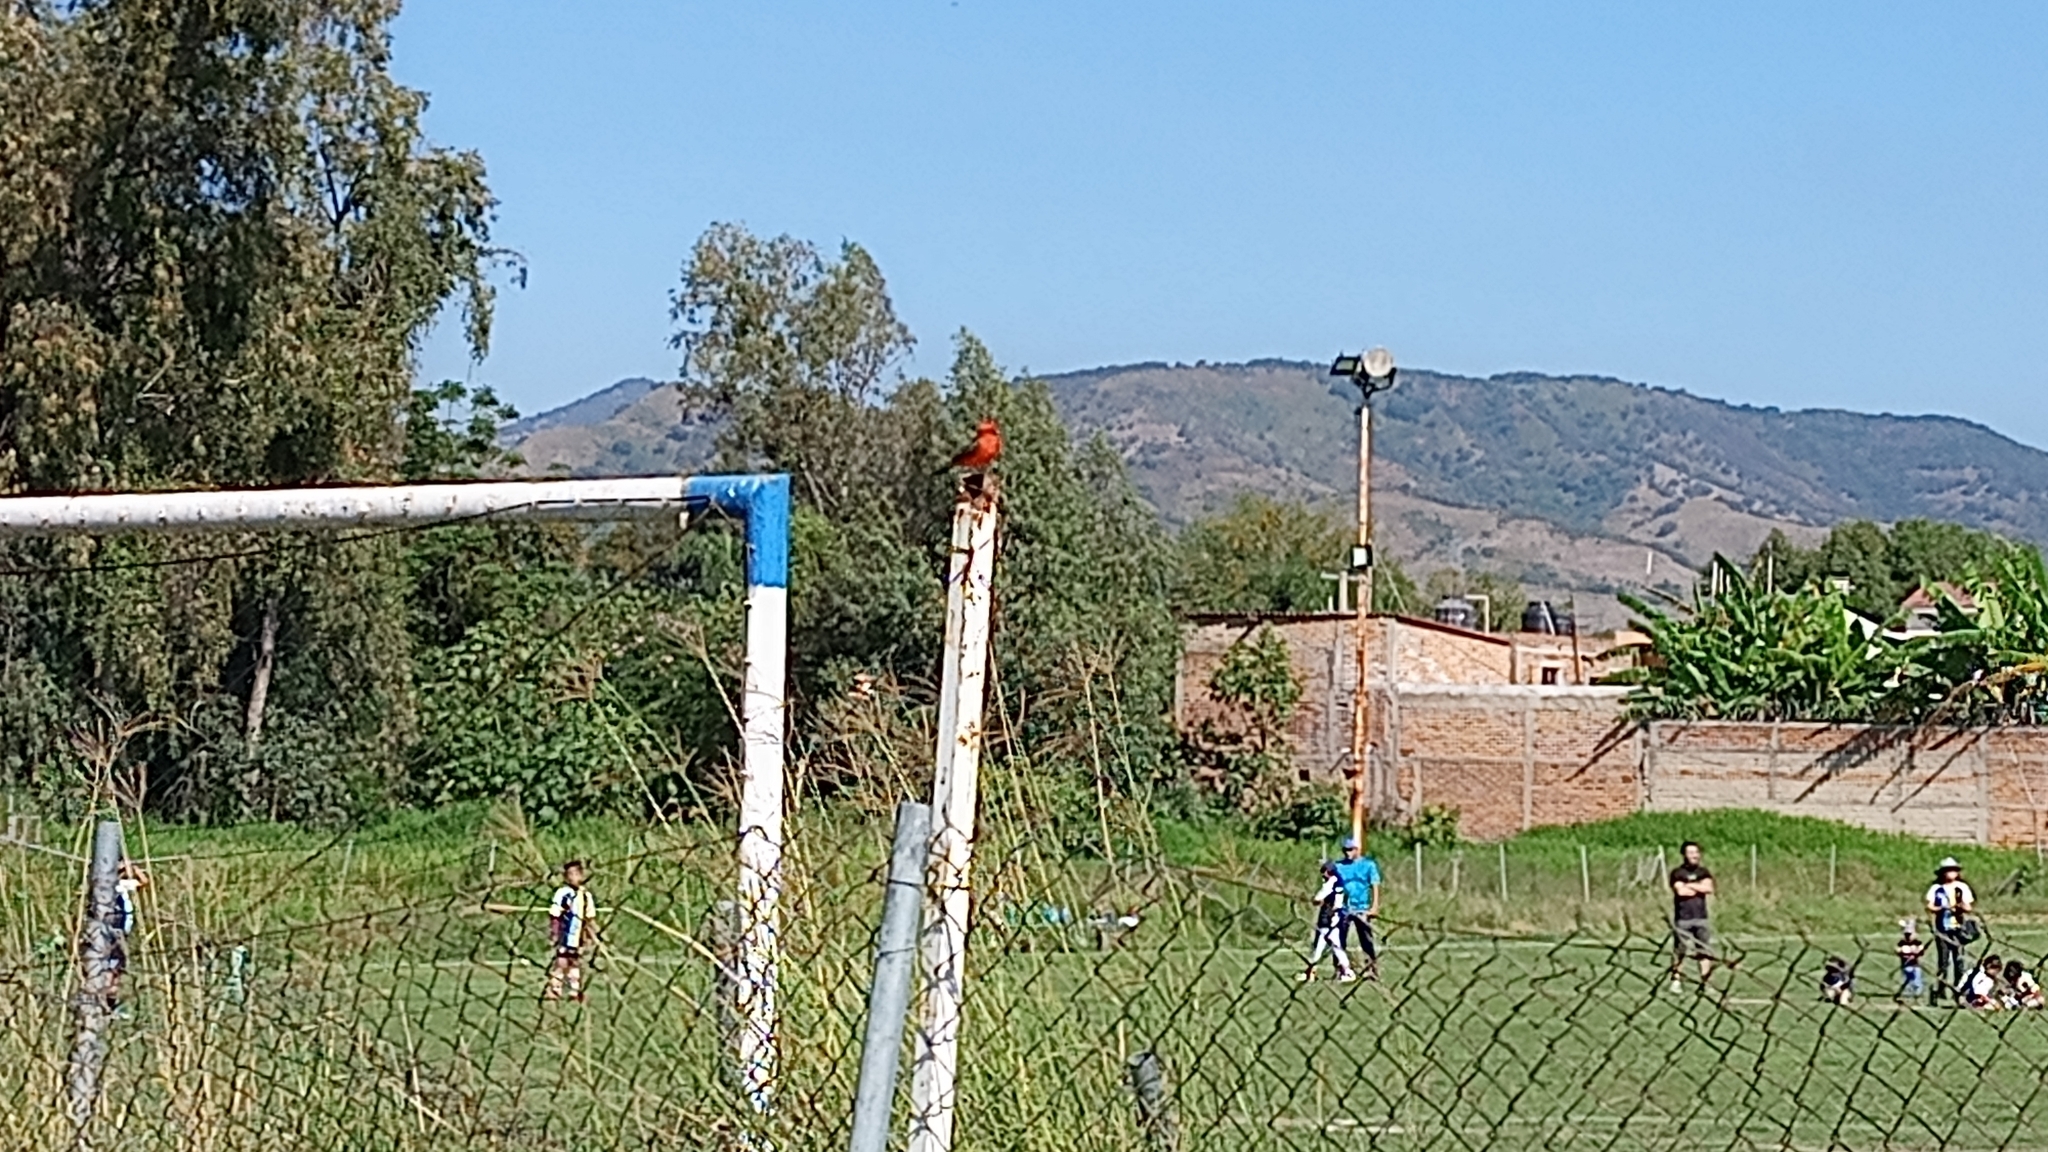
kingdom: Animalia
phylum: Chordata
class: Aves
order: Passeriformes
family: Tyrannidae
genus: Pyrocephalus
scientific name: Pyrocephalus rubinus
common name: Vermilion flycatcher
